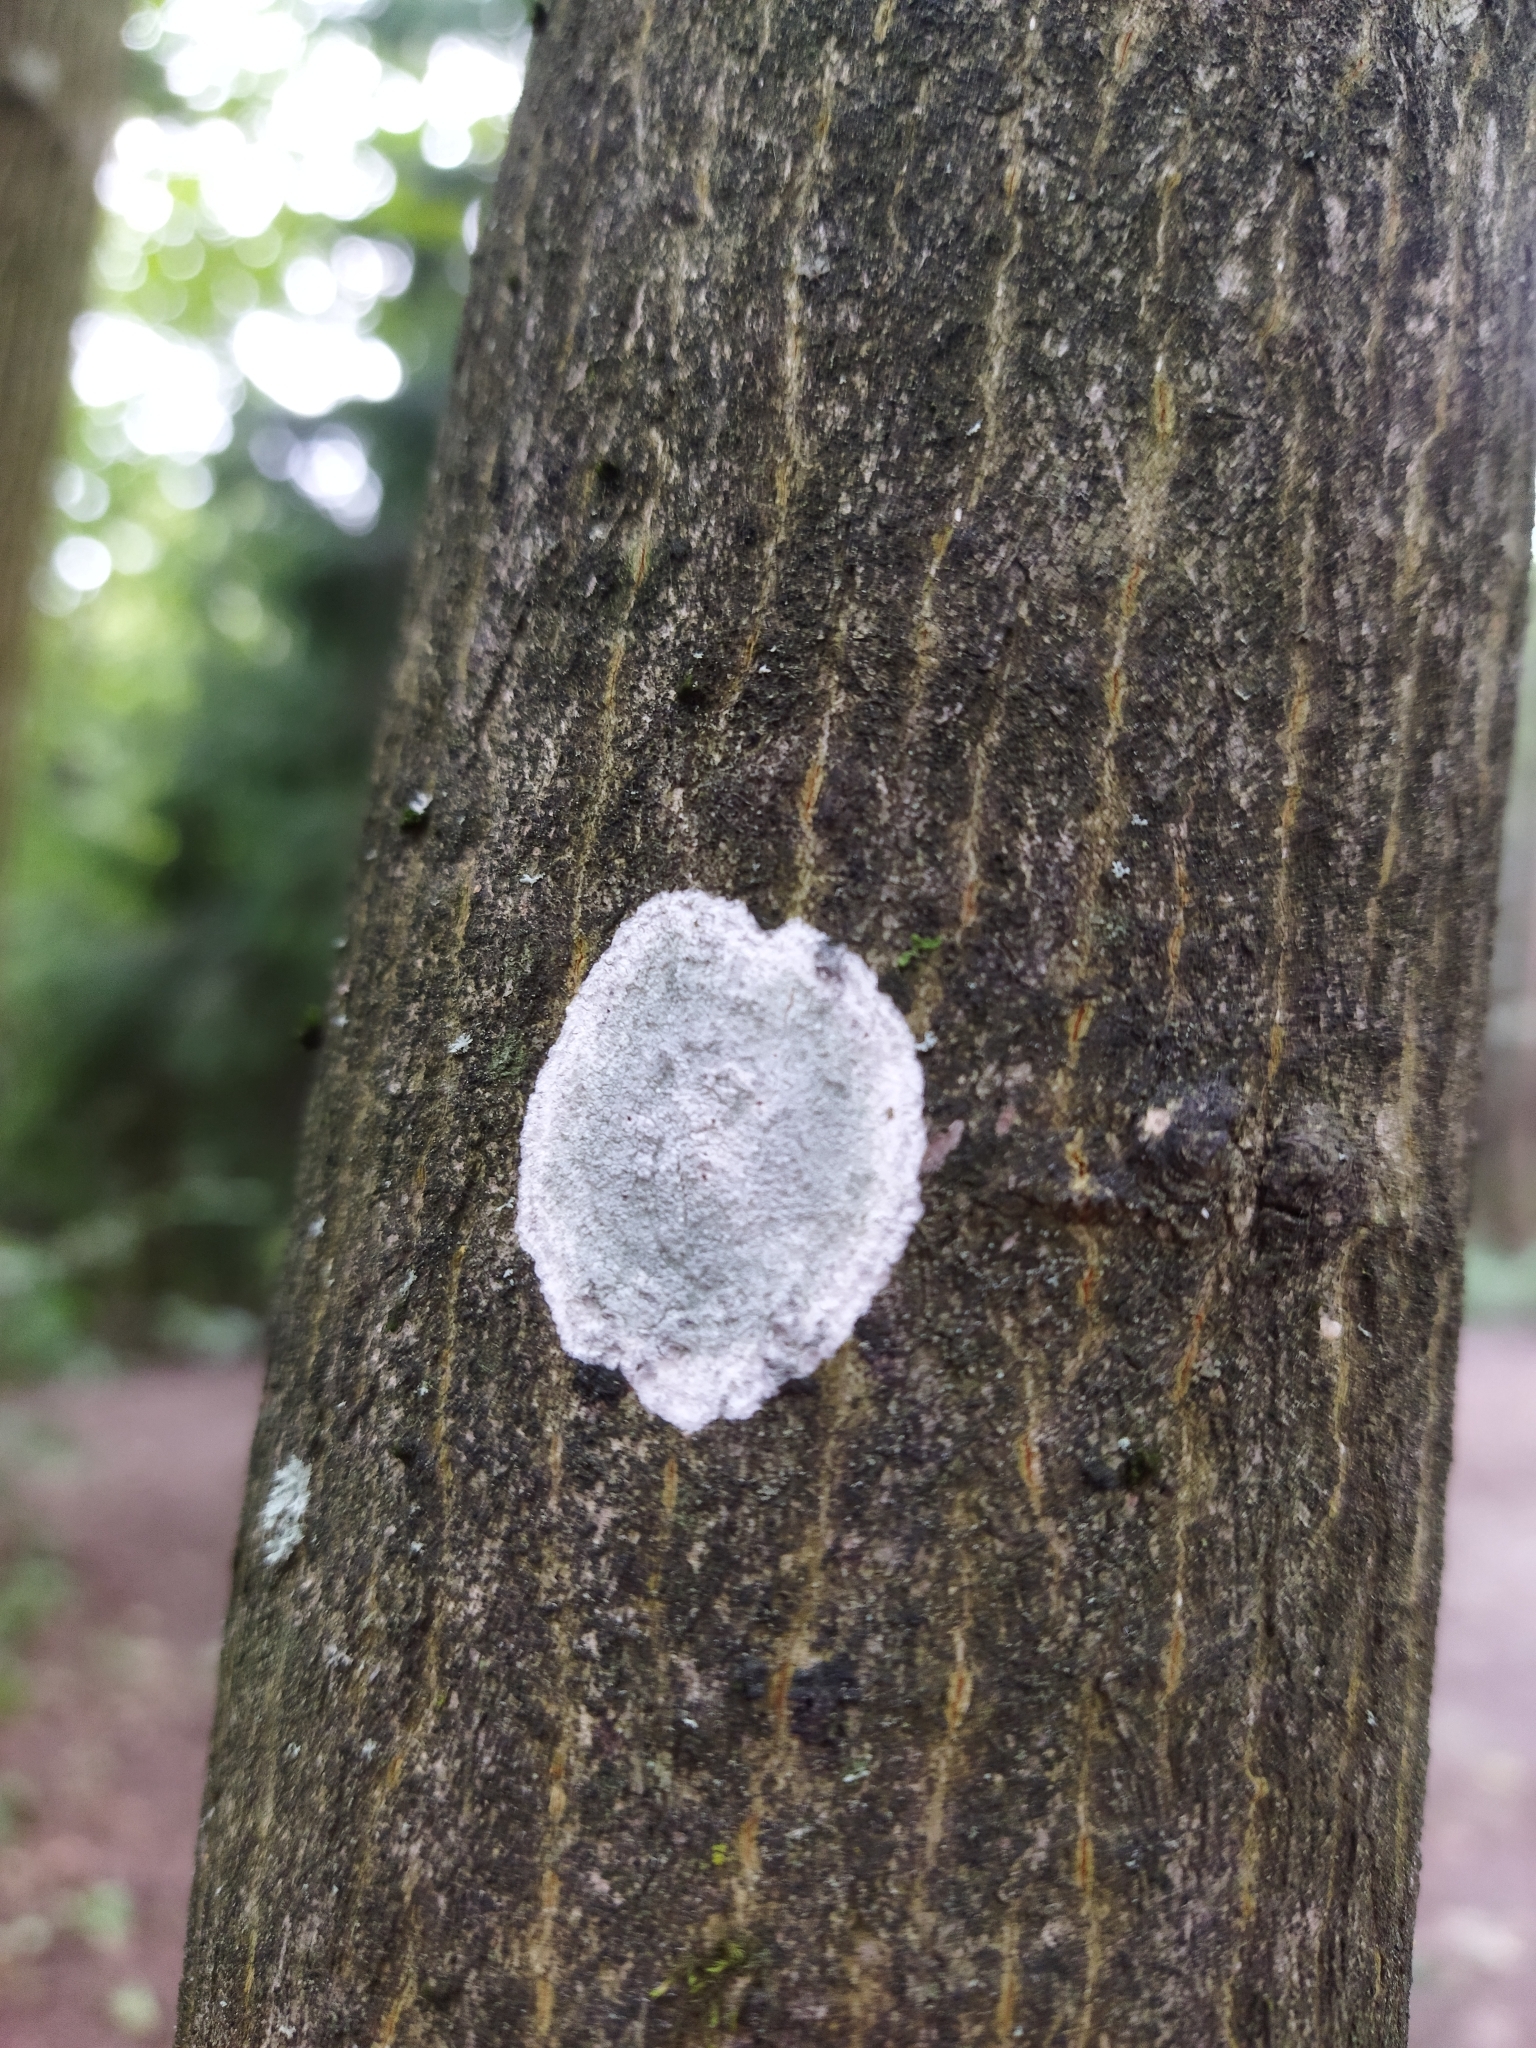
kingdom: Fungi
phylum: Ascomycota
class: Lecanoromycetes
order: Ostropales
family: Phlyctidaceae
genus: Phlyctis
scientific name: Phlyctis argena
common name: Whitewash lichen
